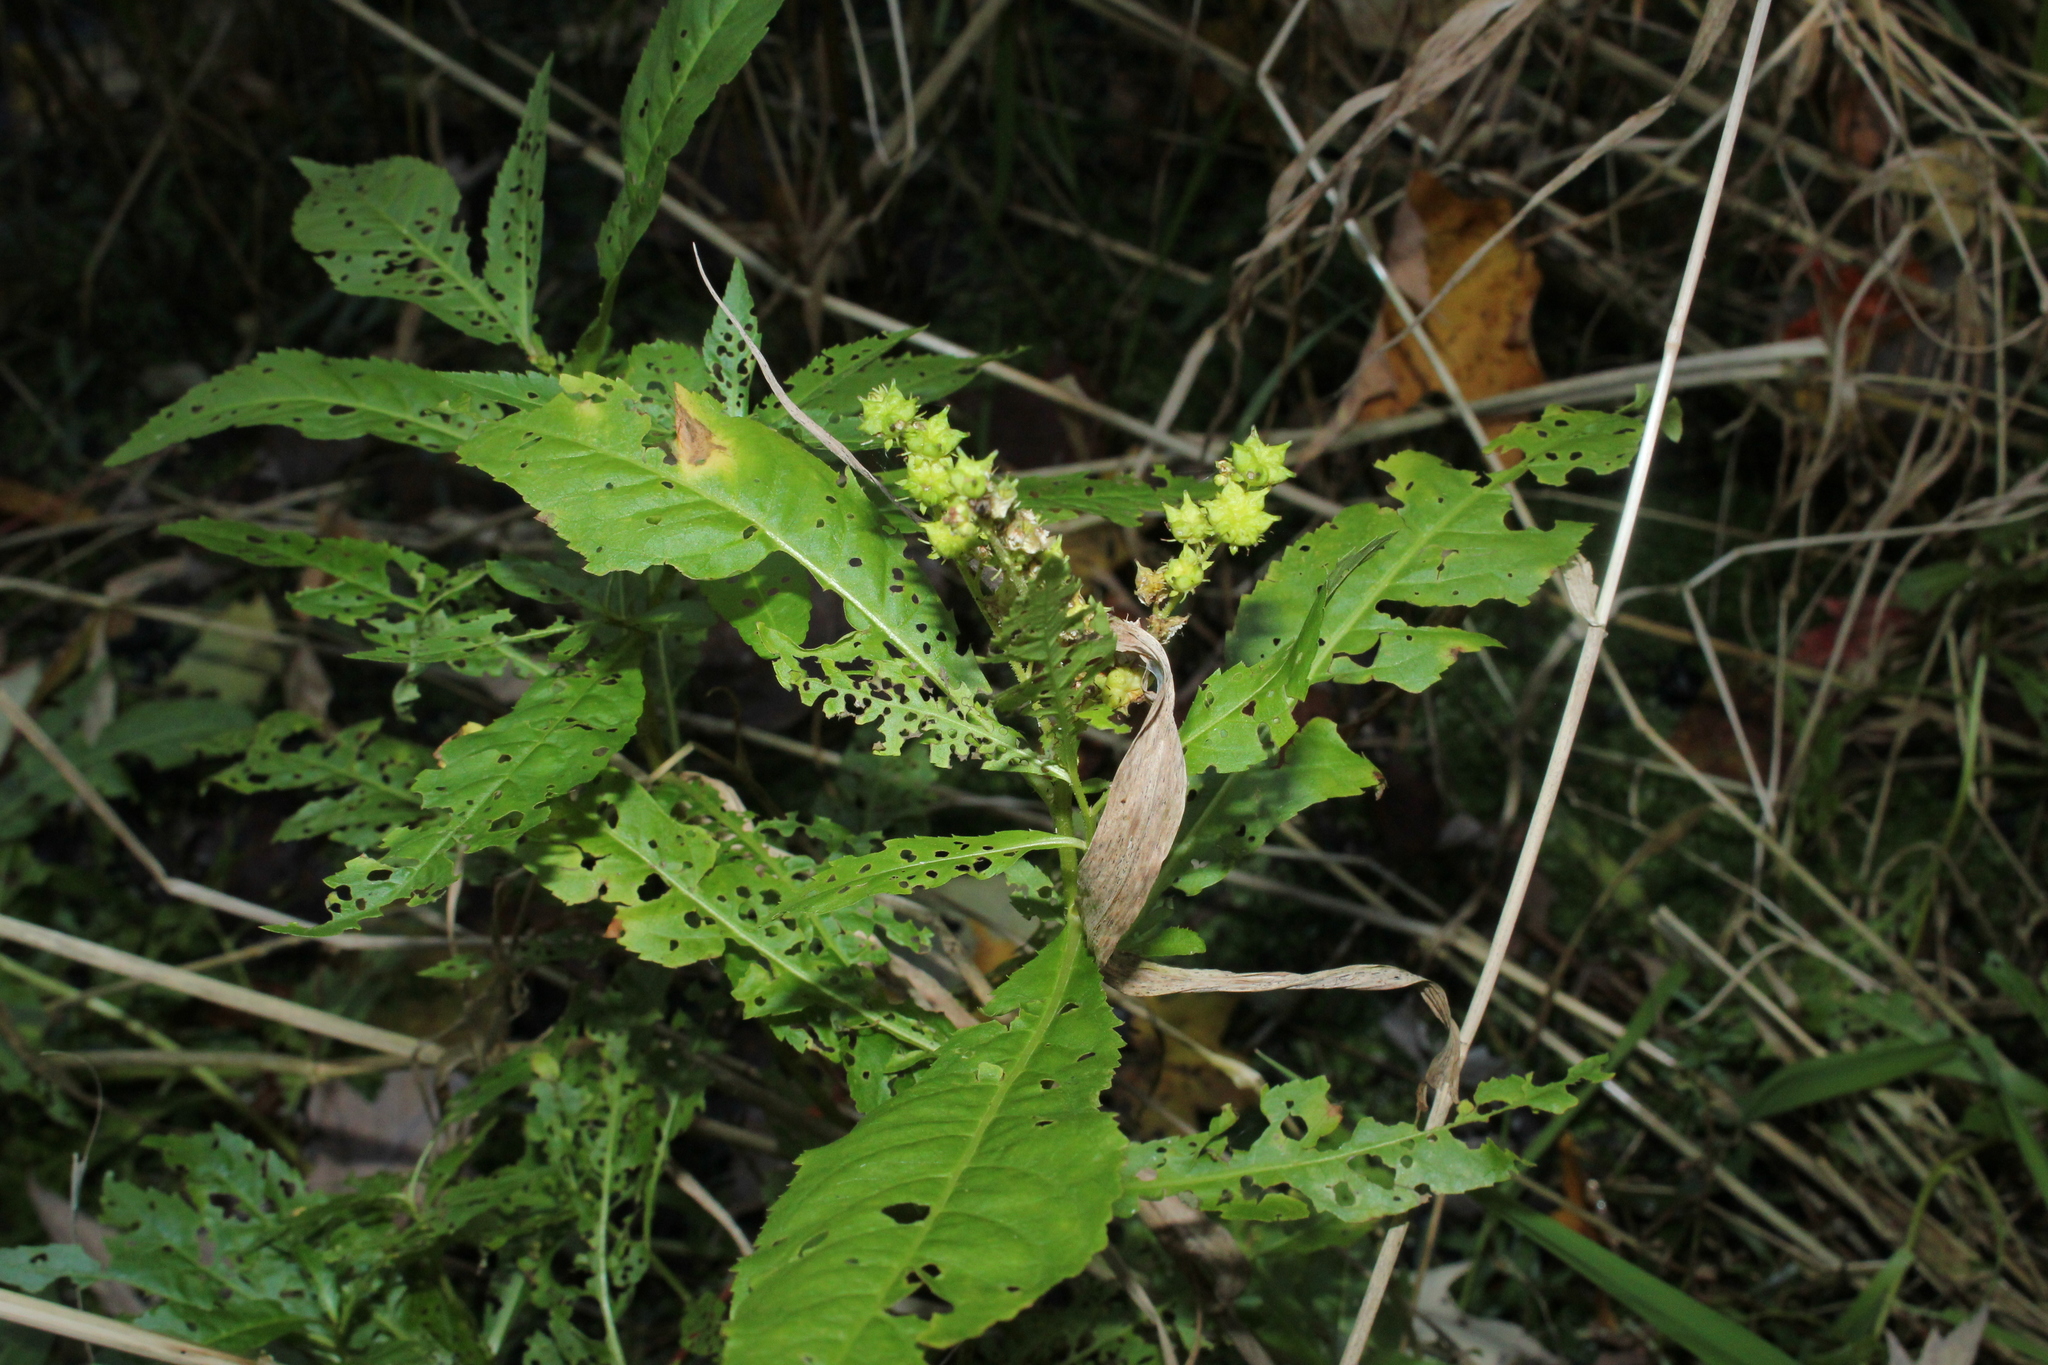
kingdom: Plantae
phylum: Tracheophyta
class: Magnoliopsida
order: Saxifragales
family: Penthoraceae
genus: Penthorum
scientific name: Penthorum sedoides
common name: Ditch stonecrop
